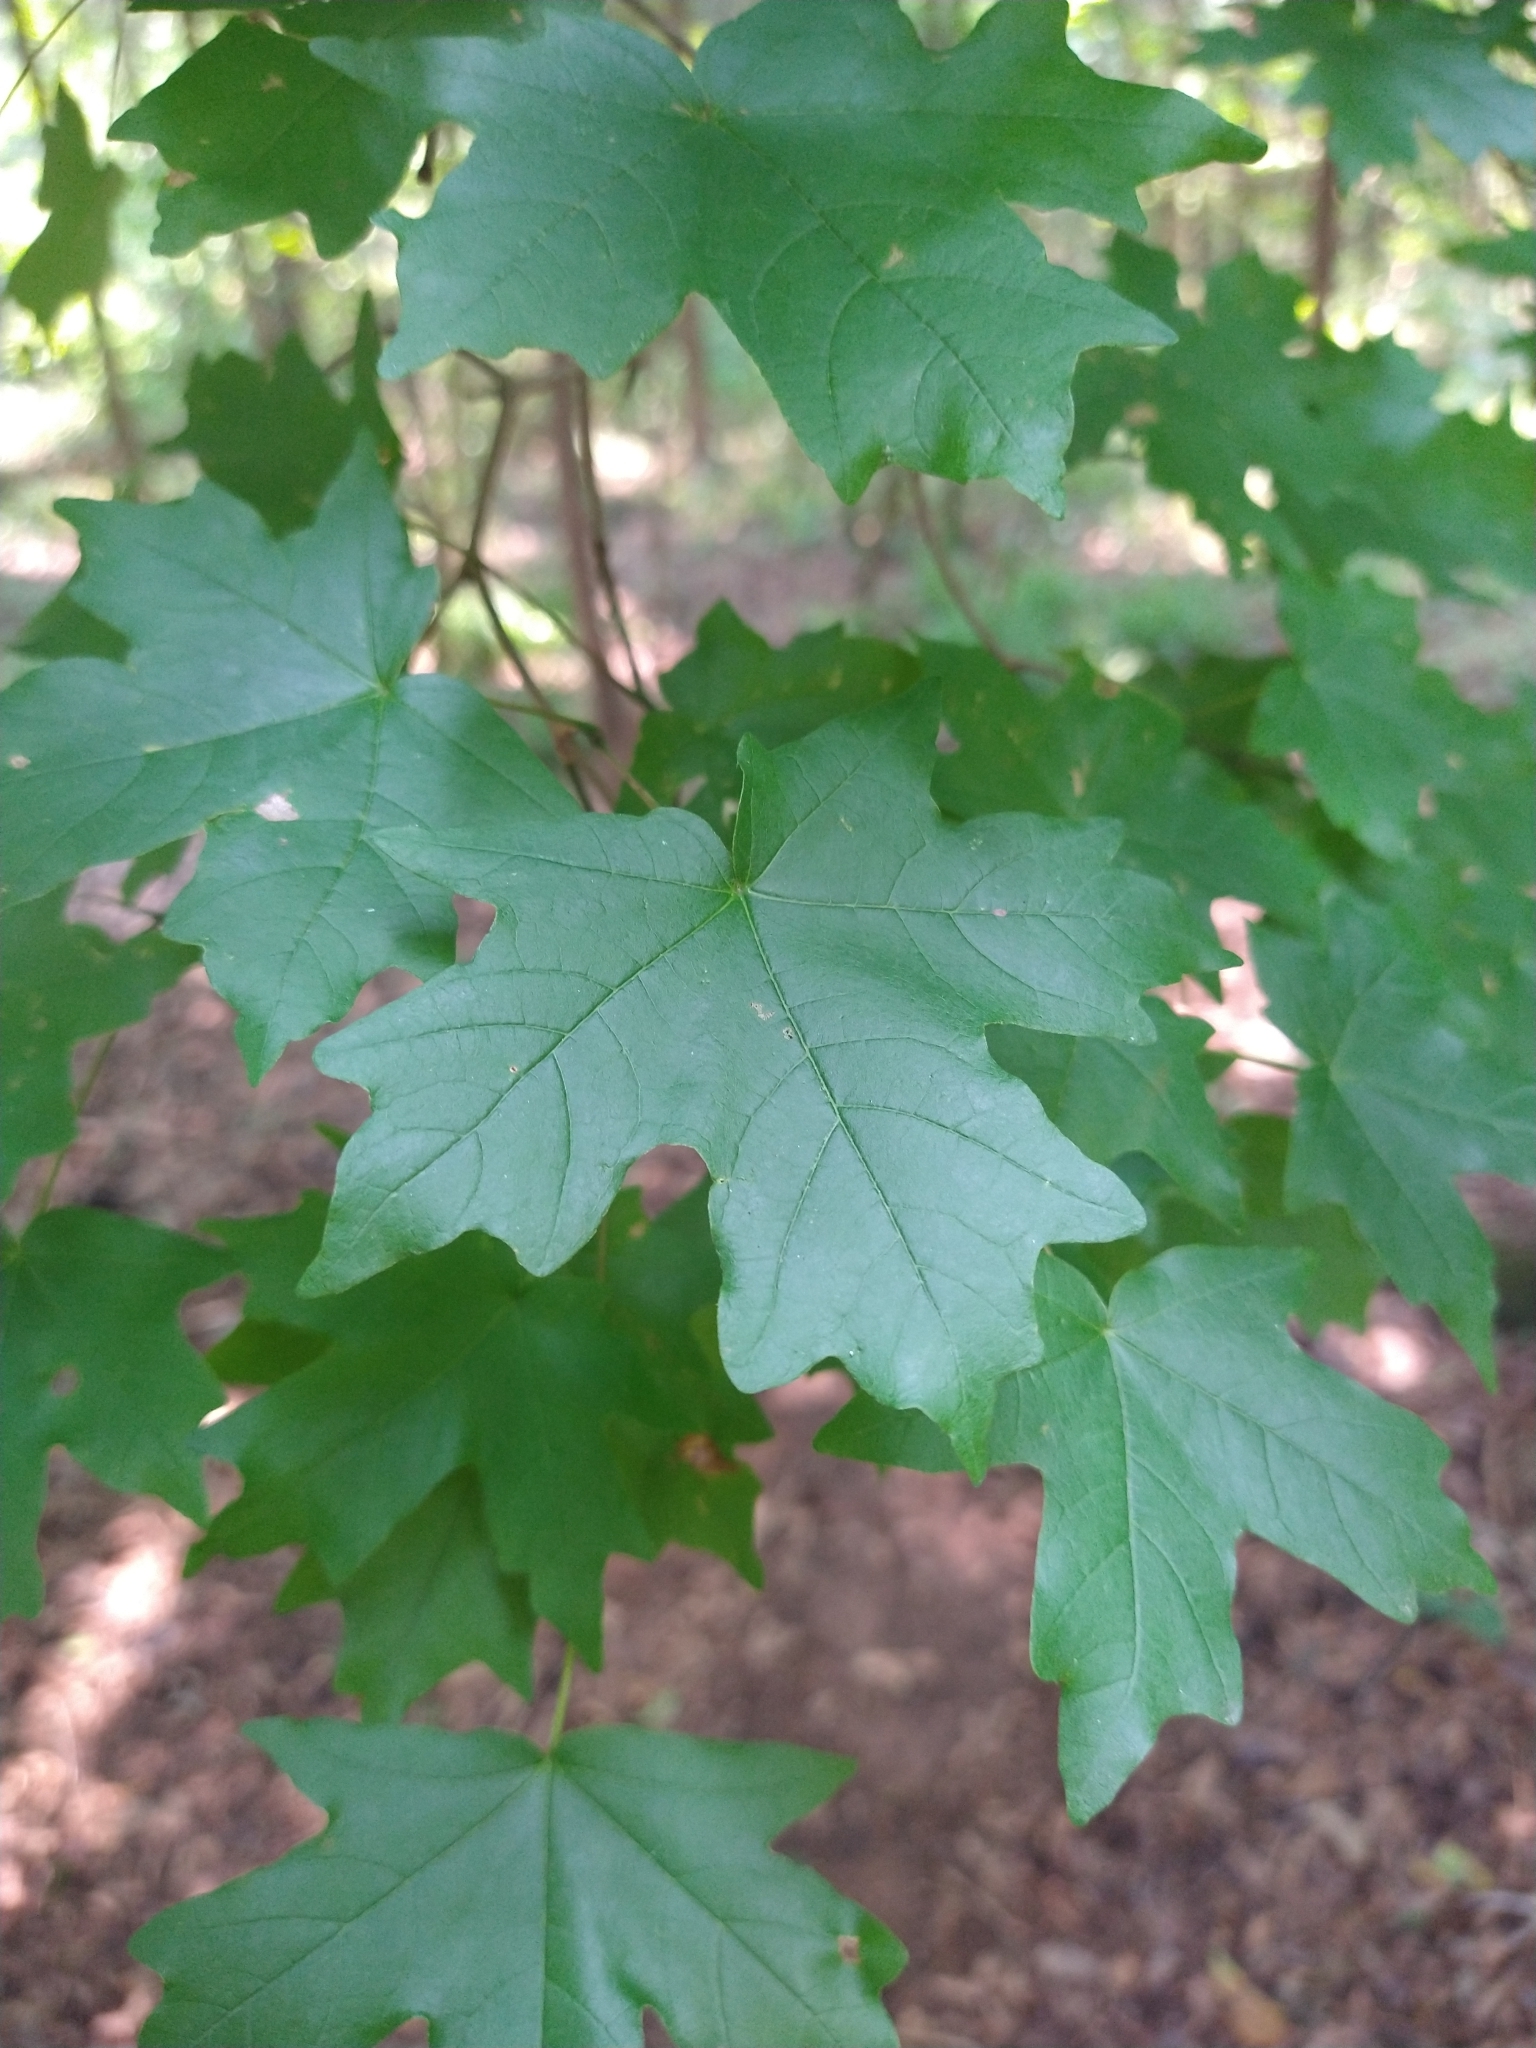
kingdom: Plantae
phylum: Tracheophyta
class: Magnoliopsida
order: Sapindales
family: Sapindaceae
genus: Acer
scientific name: Acer floridanum
